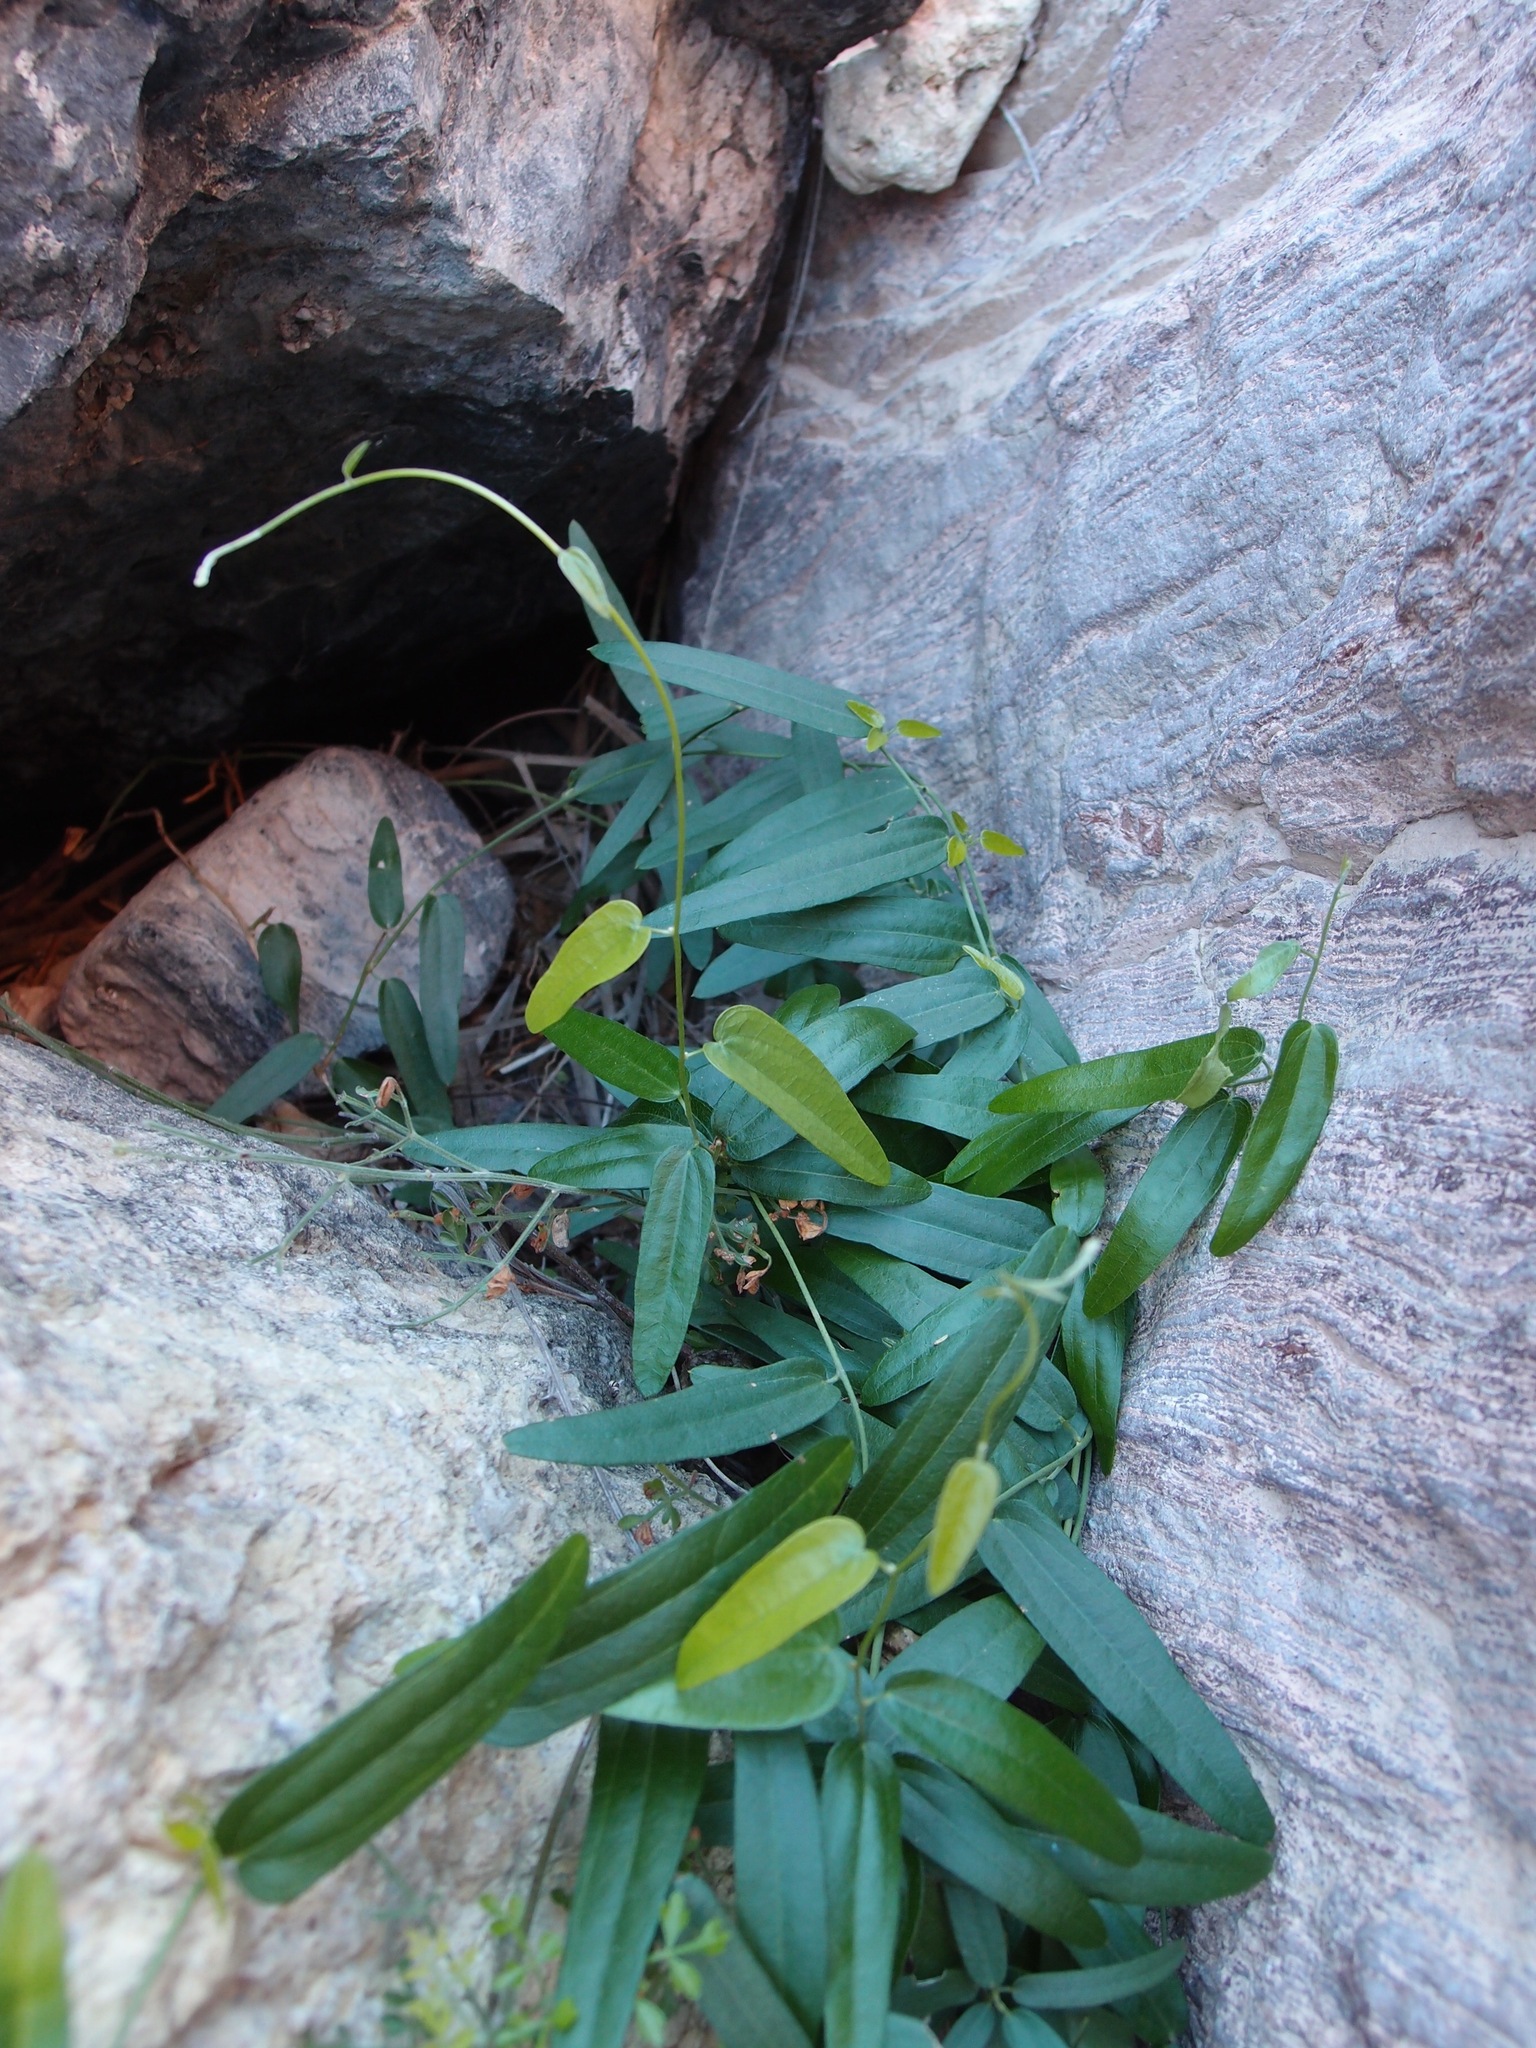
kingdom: Plantae
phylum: Tracheophyta
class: Magnoliopsida
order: Ranunculales
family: Menispermaceae
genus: Cocculus
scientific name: Cocculus diversifolius
